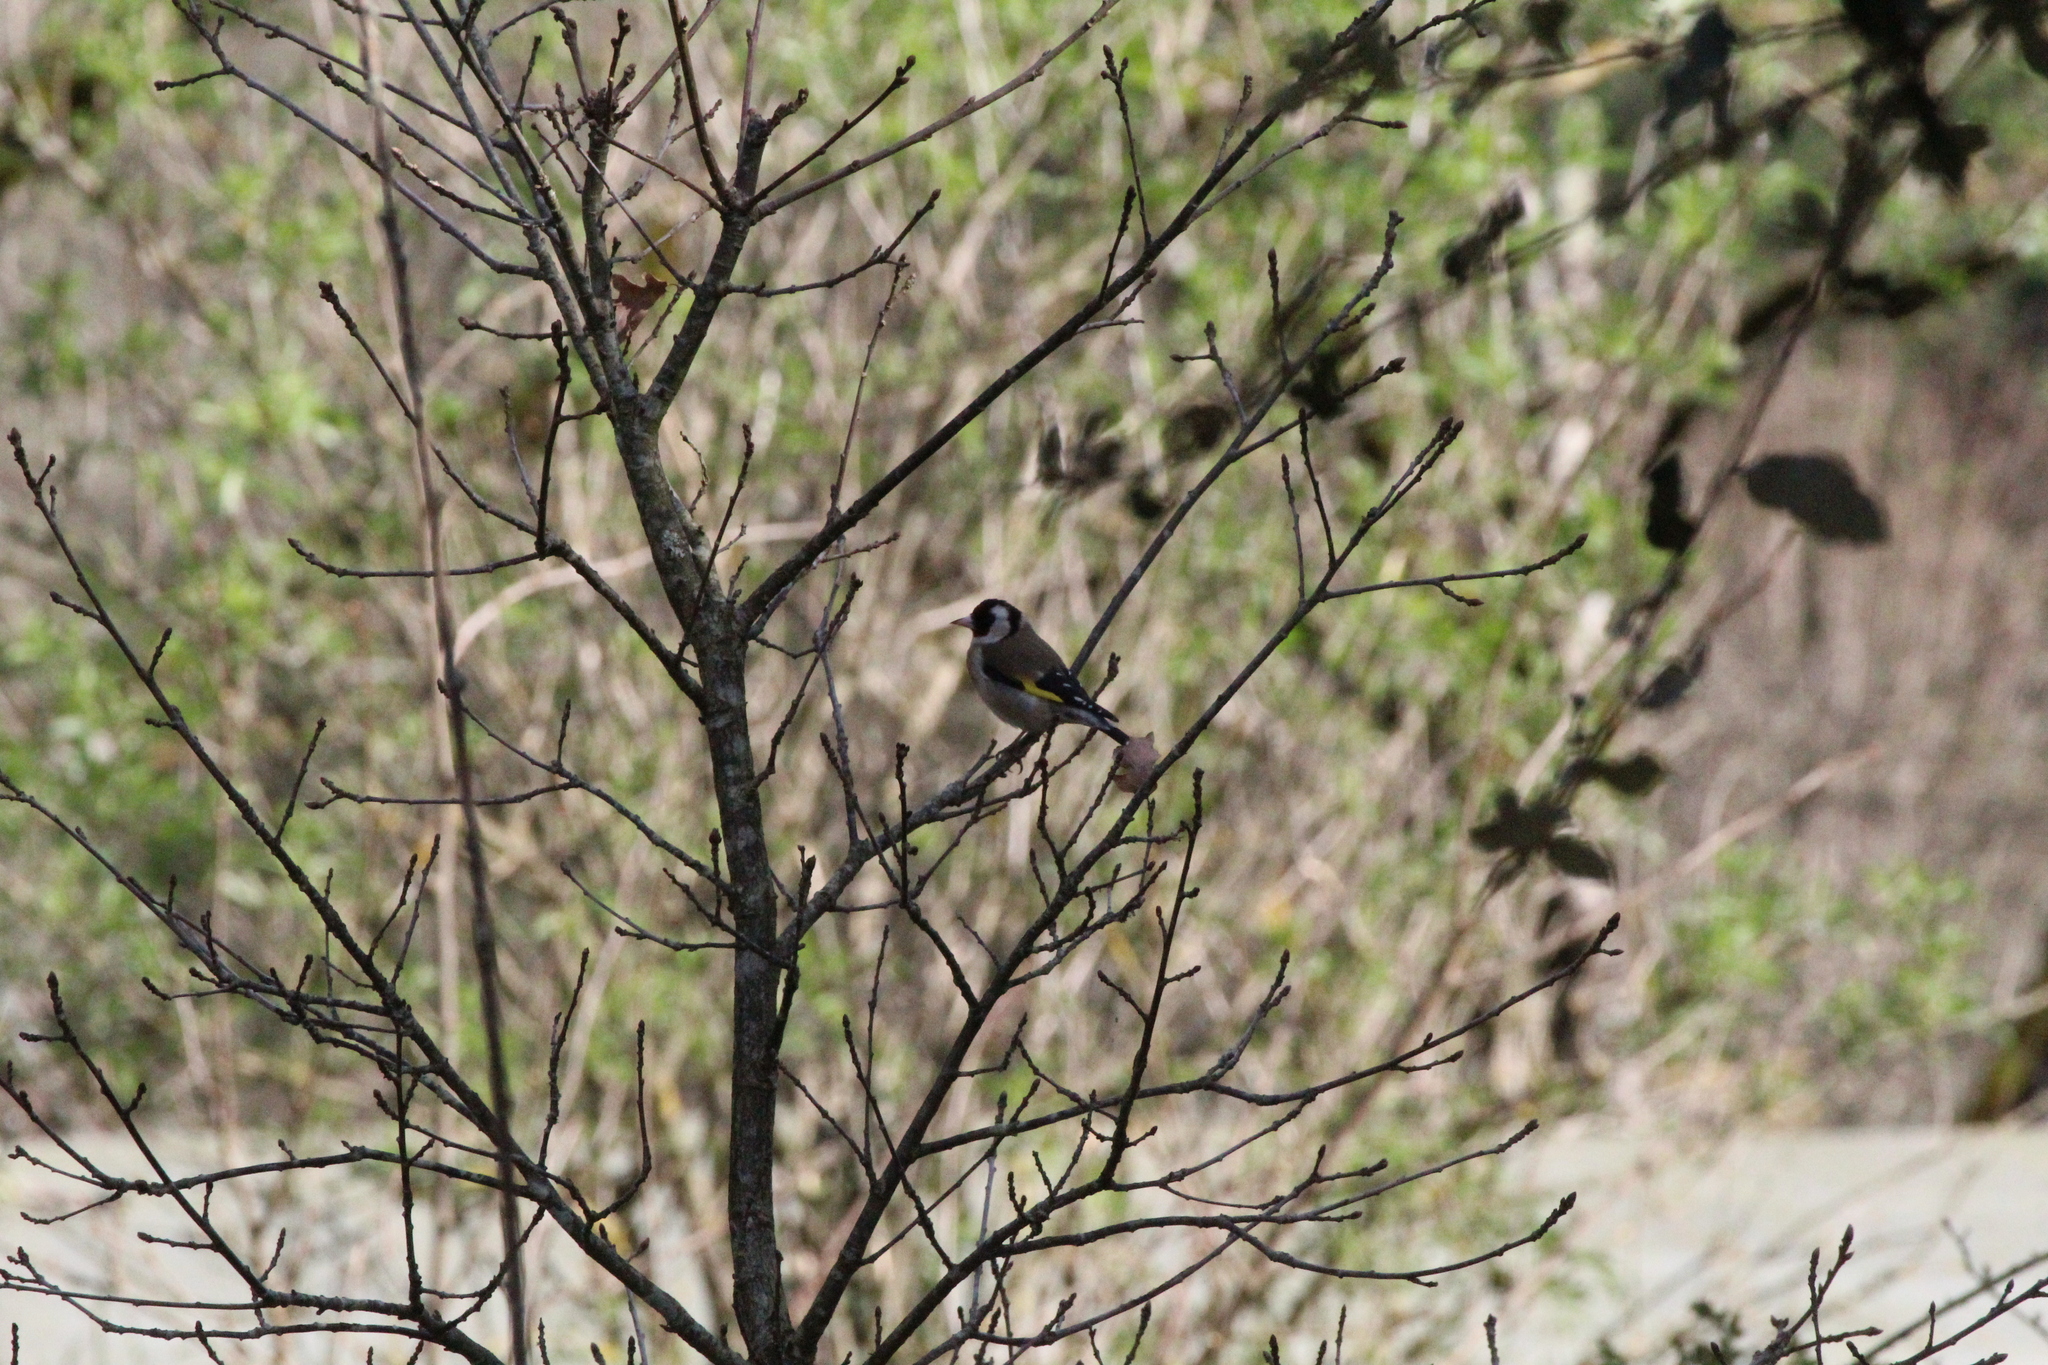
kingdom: Animalia
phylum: Chordata
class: Aves
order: Passeriformes
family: Fringillidae
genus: Carduelis
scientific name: Carduelis carduelis
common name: European goldfinch
